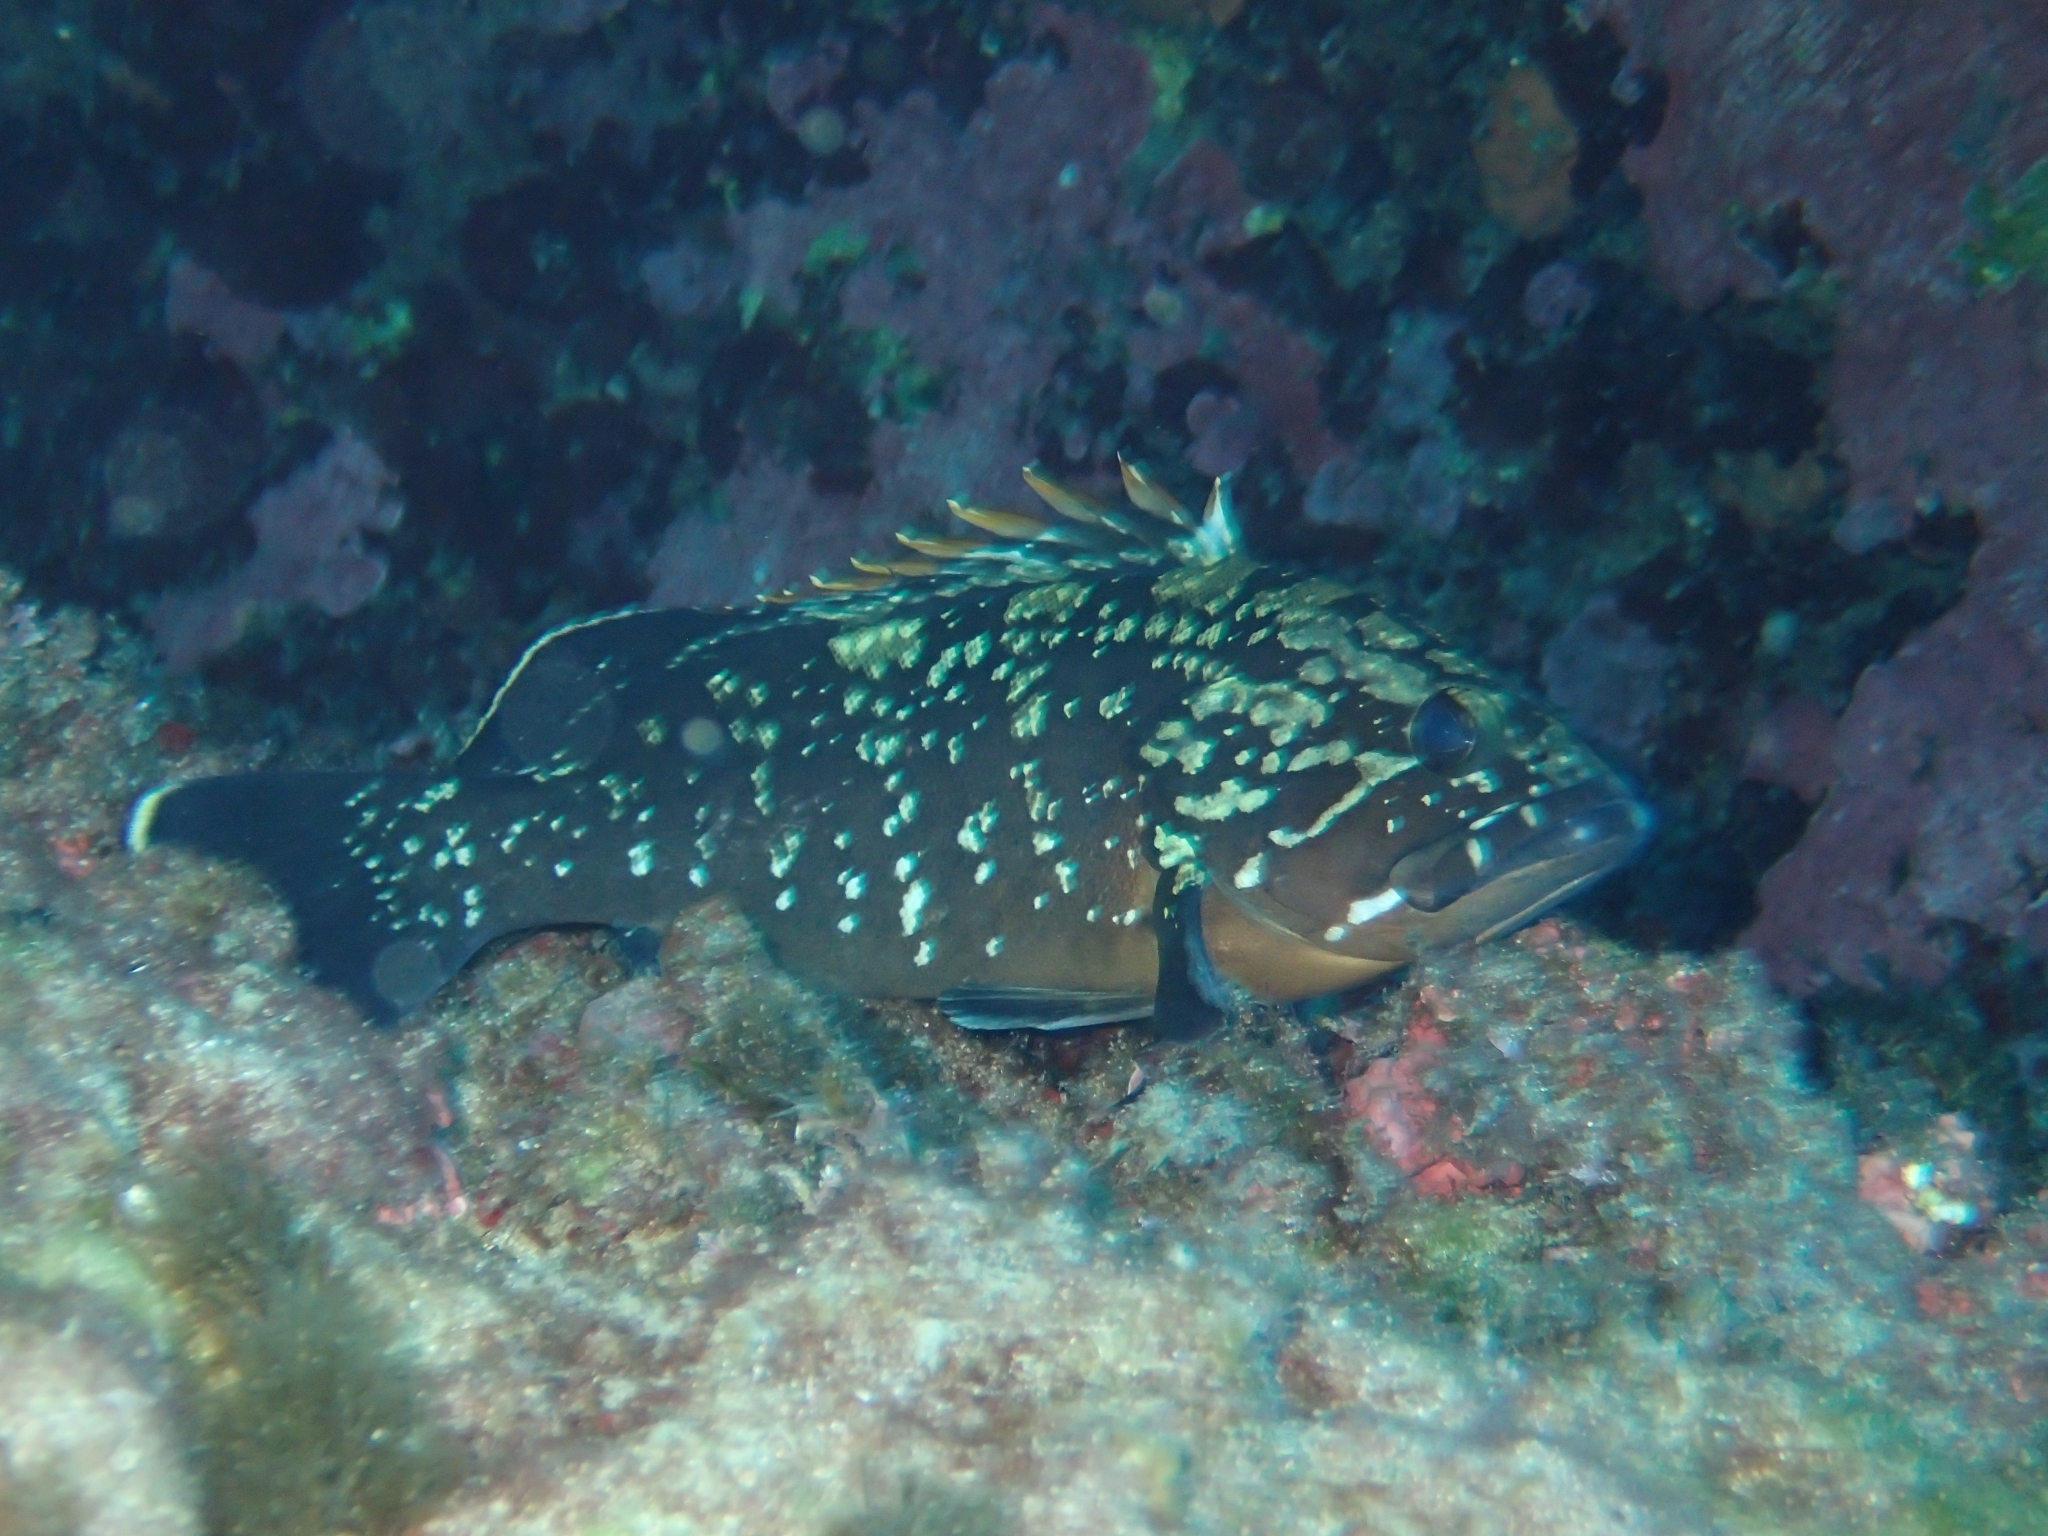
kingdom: Animalia
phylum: Chordata
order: Perciformes
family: Serranidae
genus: Epinephelus
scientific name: Epinephelus marginatus
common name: Dusky grouper
